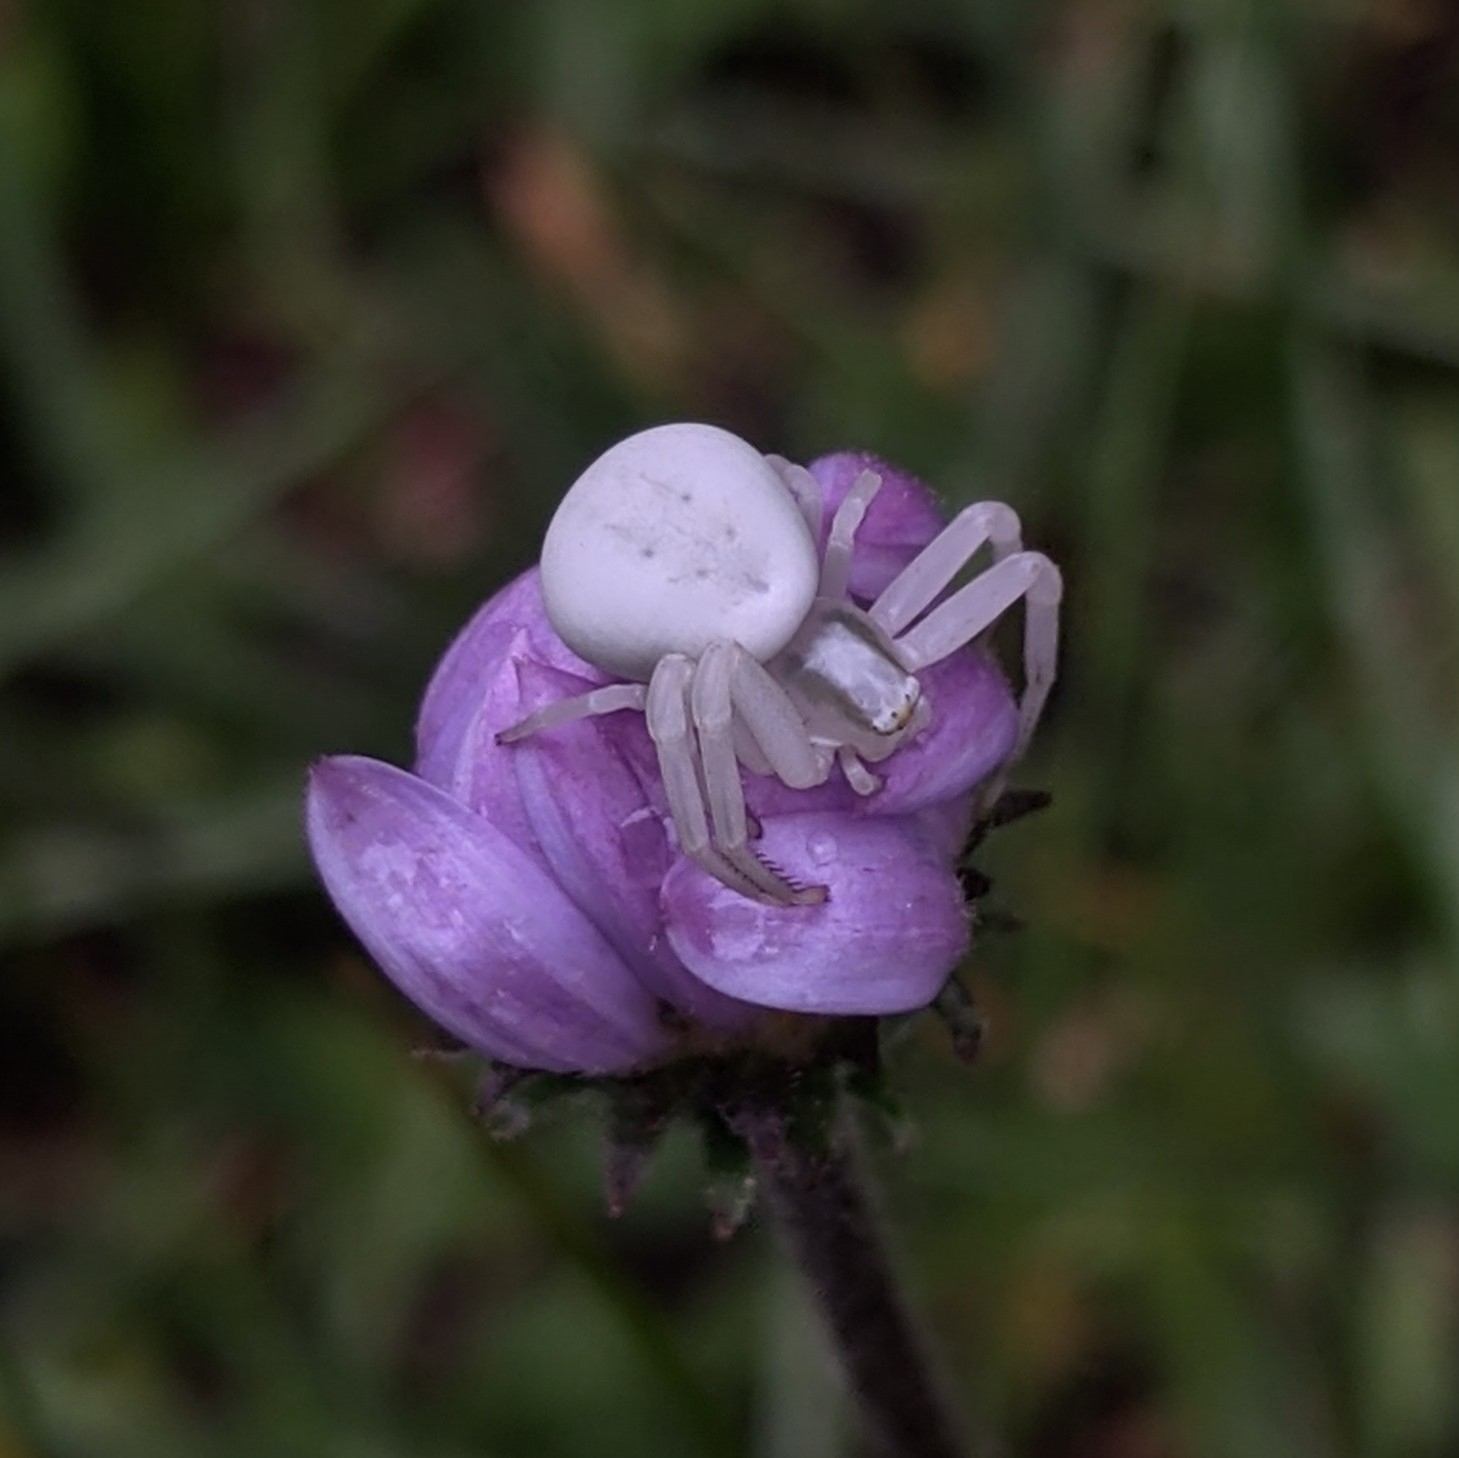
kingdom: Animalia
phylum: Arthropoda
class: Arachnida
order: Araneae
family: Thomisidae
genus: Misumena
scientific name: Misumena vatia
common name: Goldenrod crab spider
